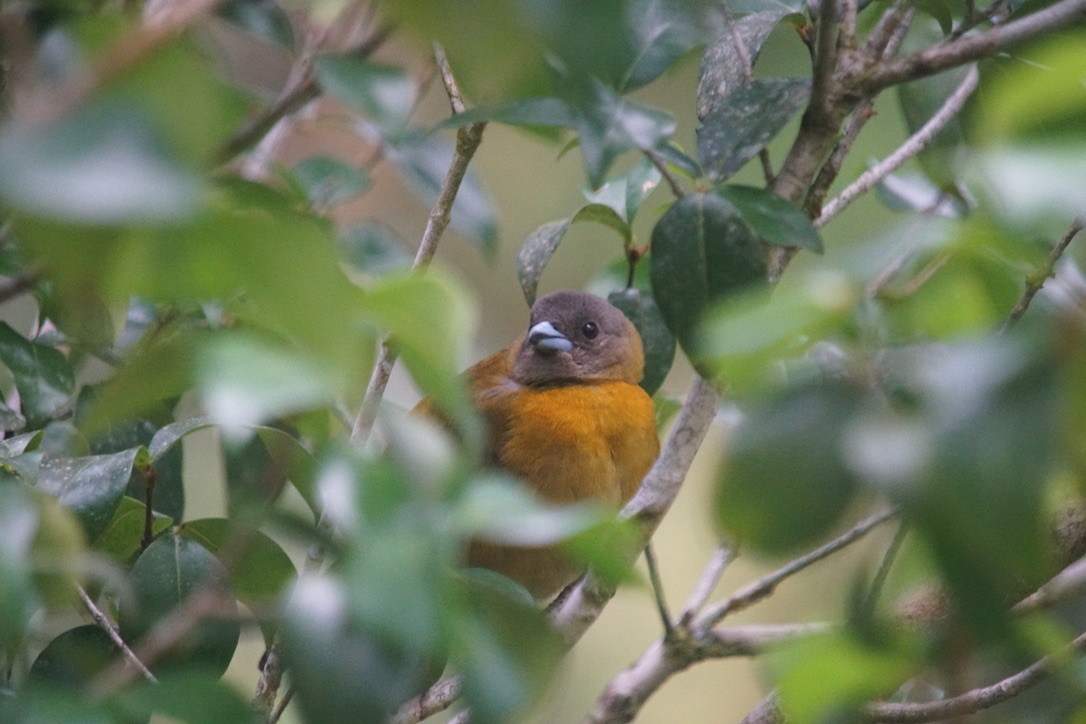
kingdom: Animalia
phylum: Chordata
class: Aves
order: Passeriformes
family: Thraupidae
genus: Ramphocelus
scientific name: Ramphocelus passerinii
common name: Passerini's tanager
